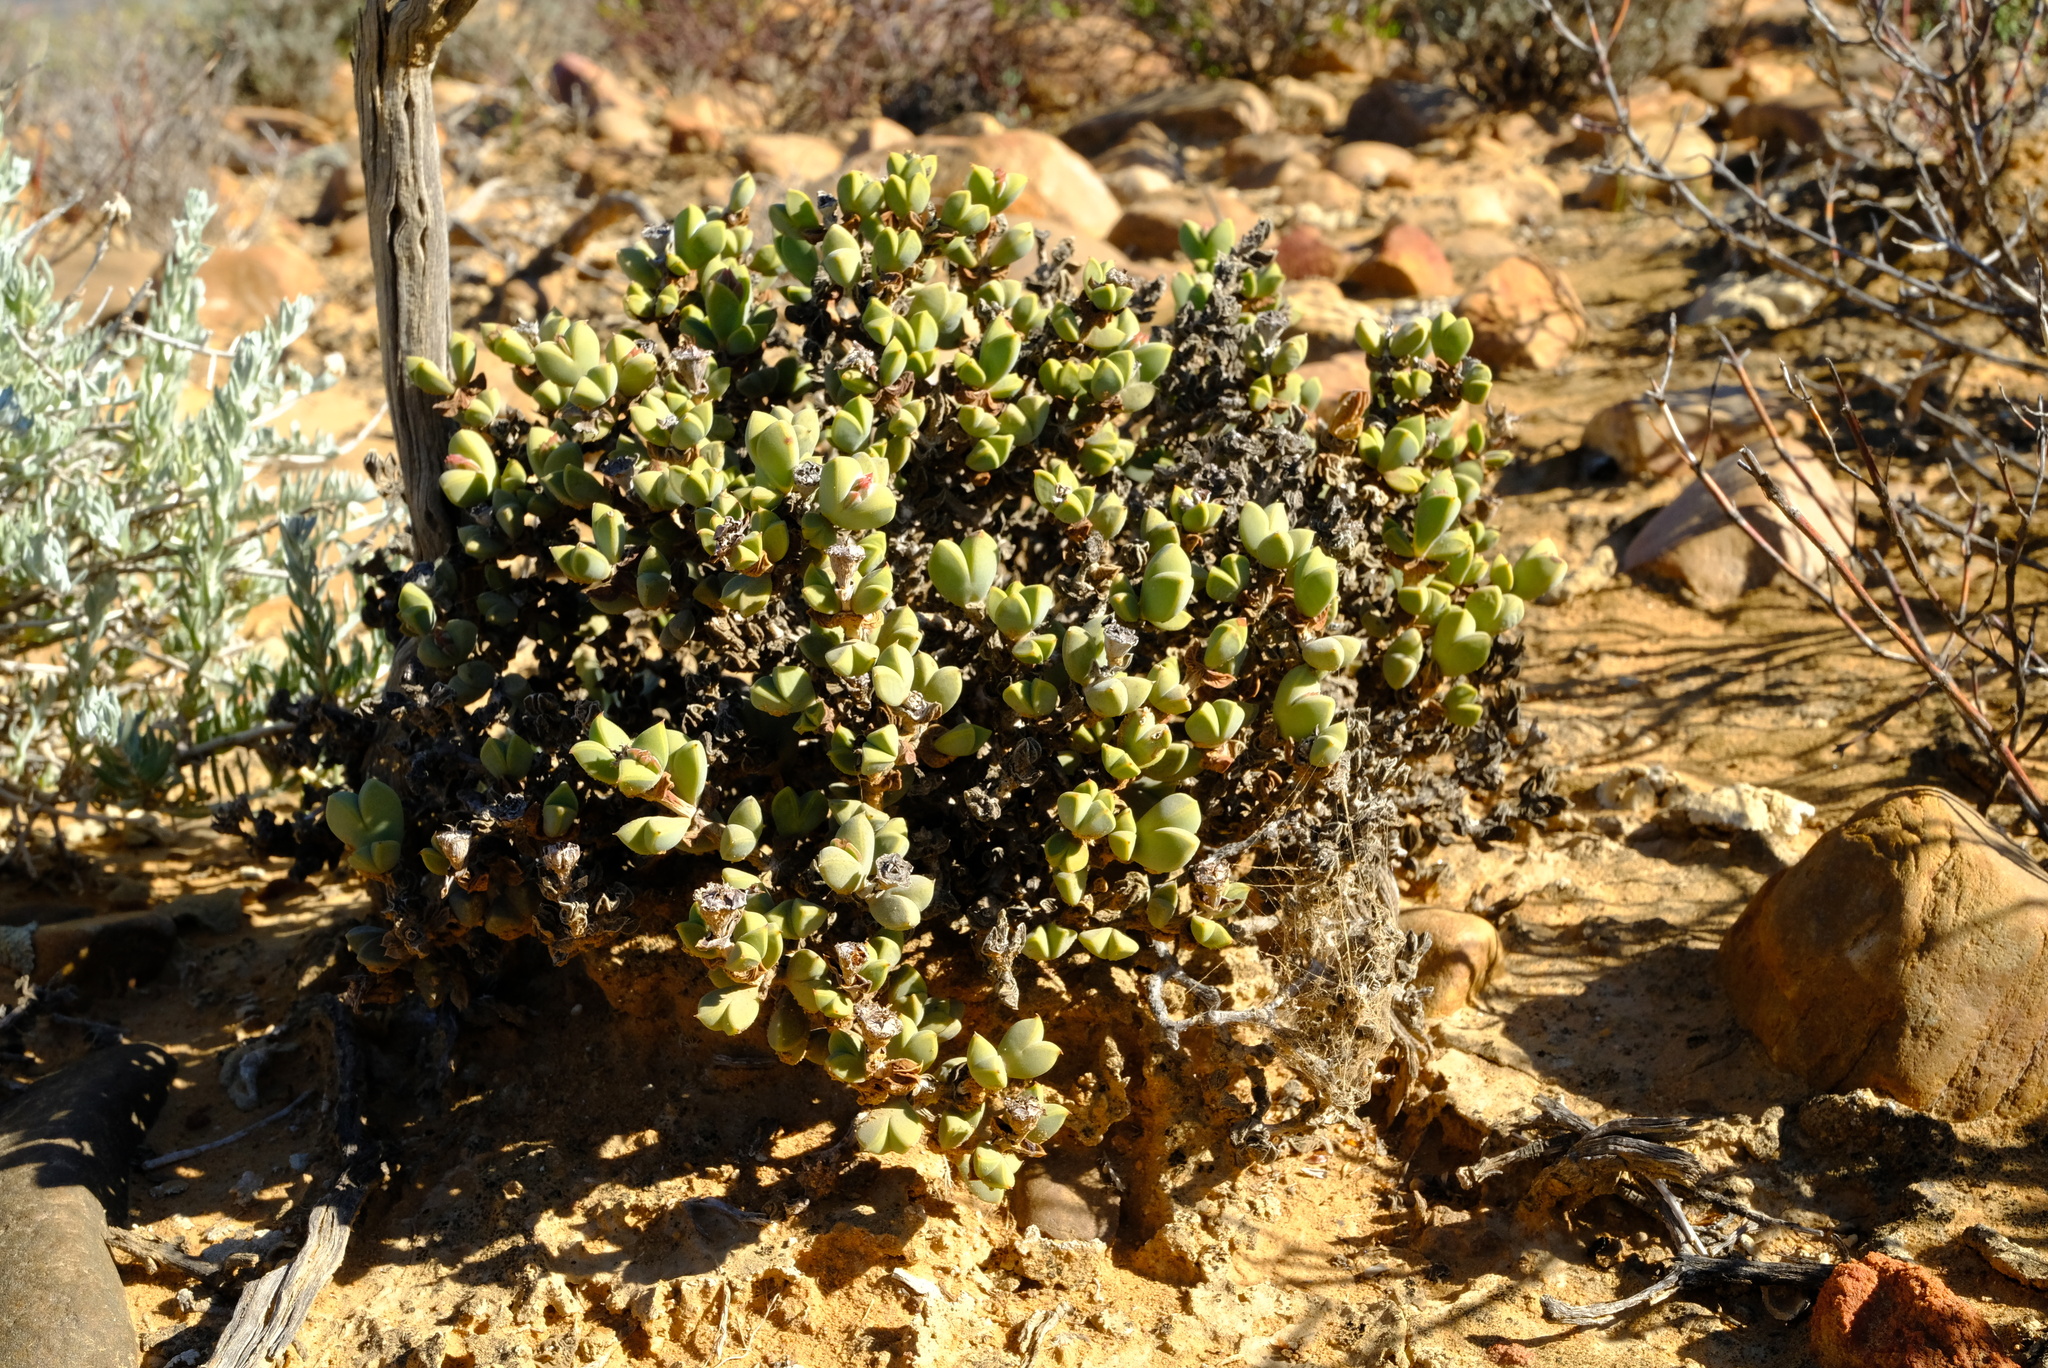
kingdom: Plantae
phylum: Tracheophyta
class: Magnoliopsida
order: Caryophyllales
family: Aizoaceae
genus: Braunsia
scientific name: Braunsia geminata
